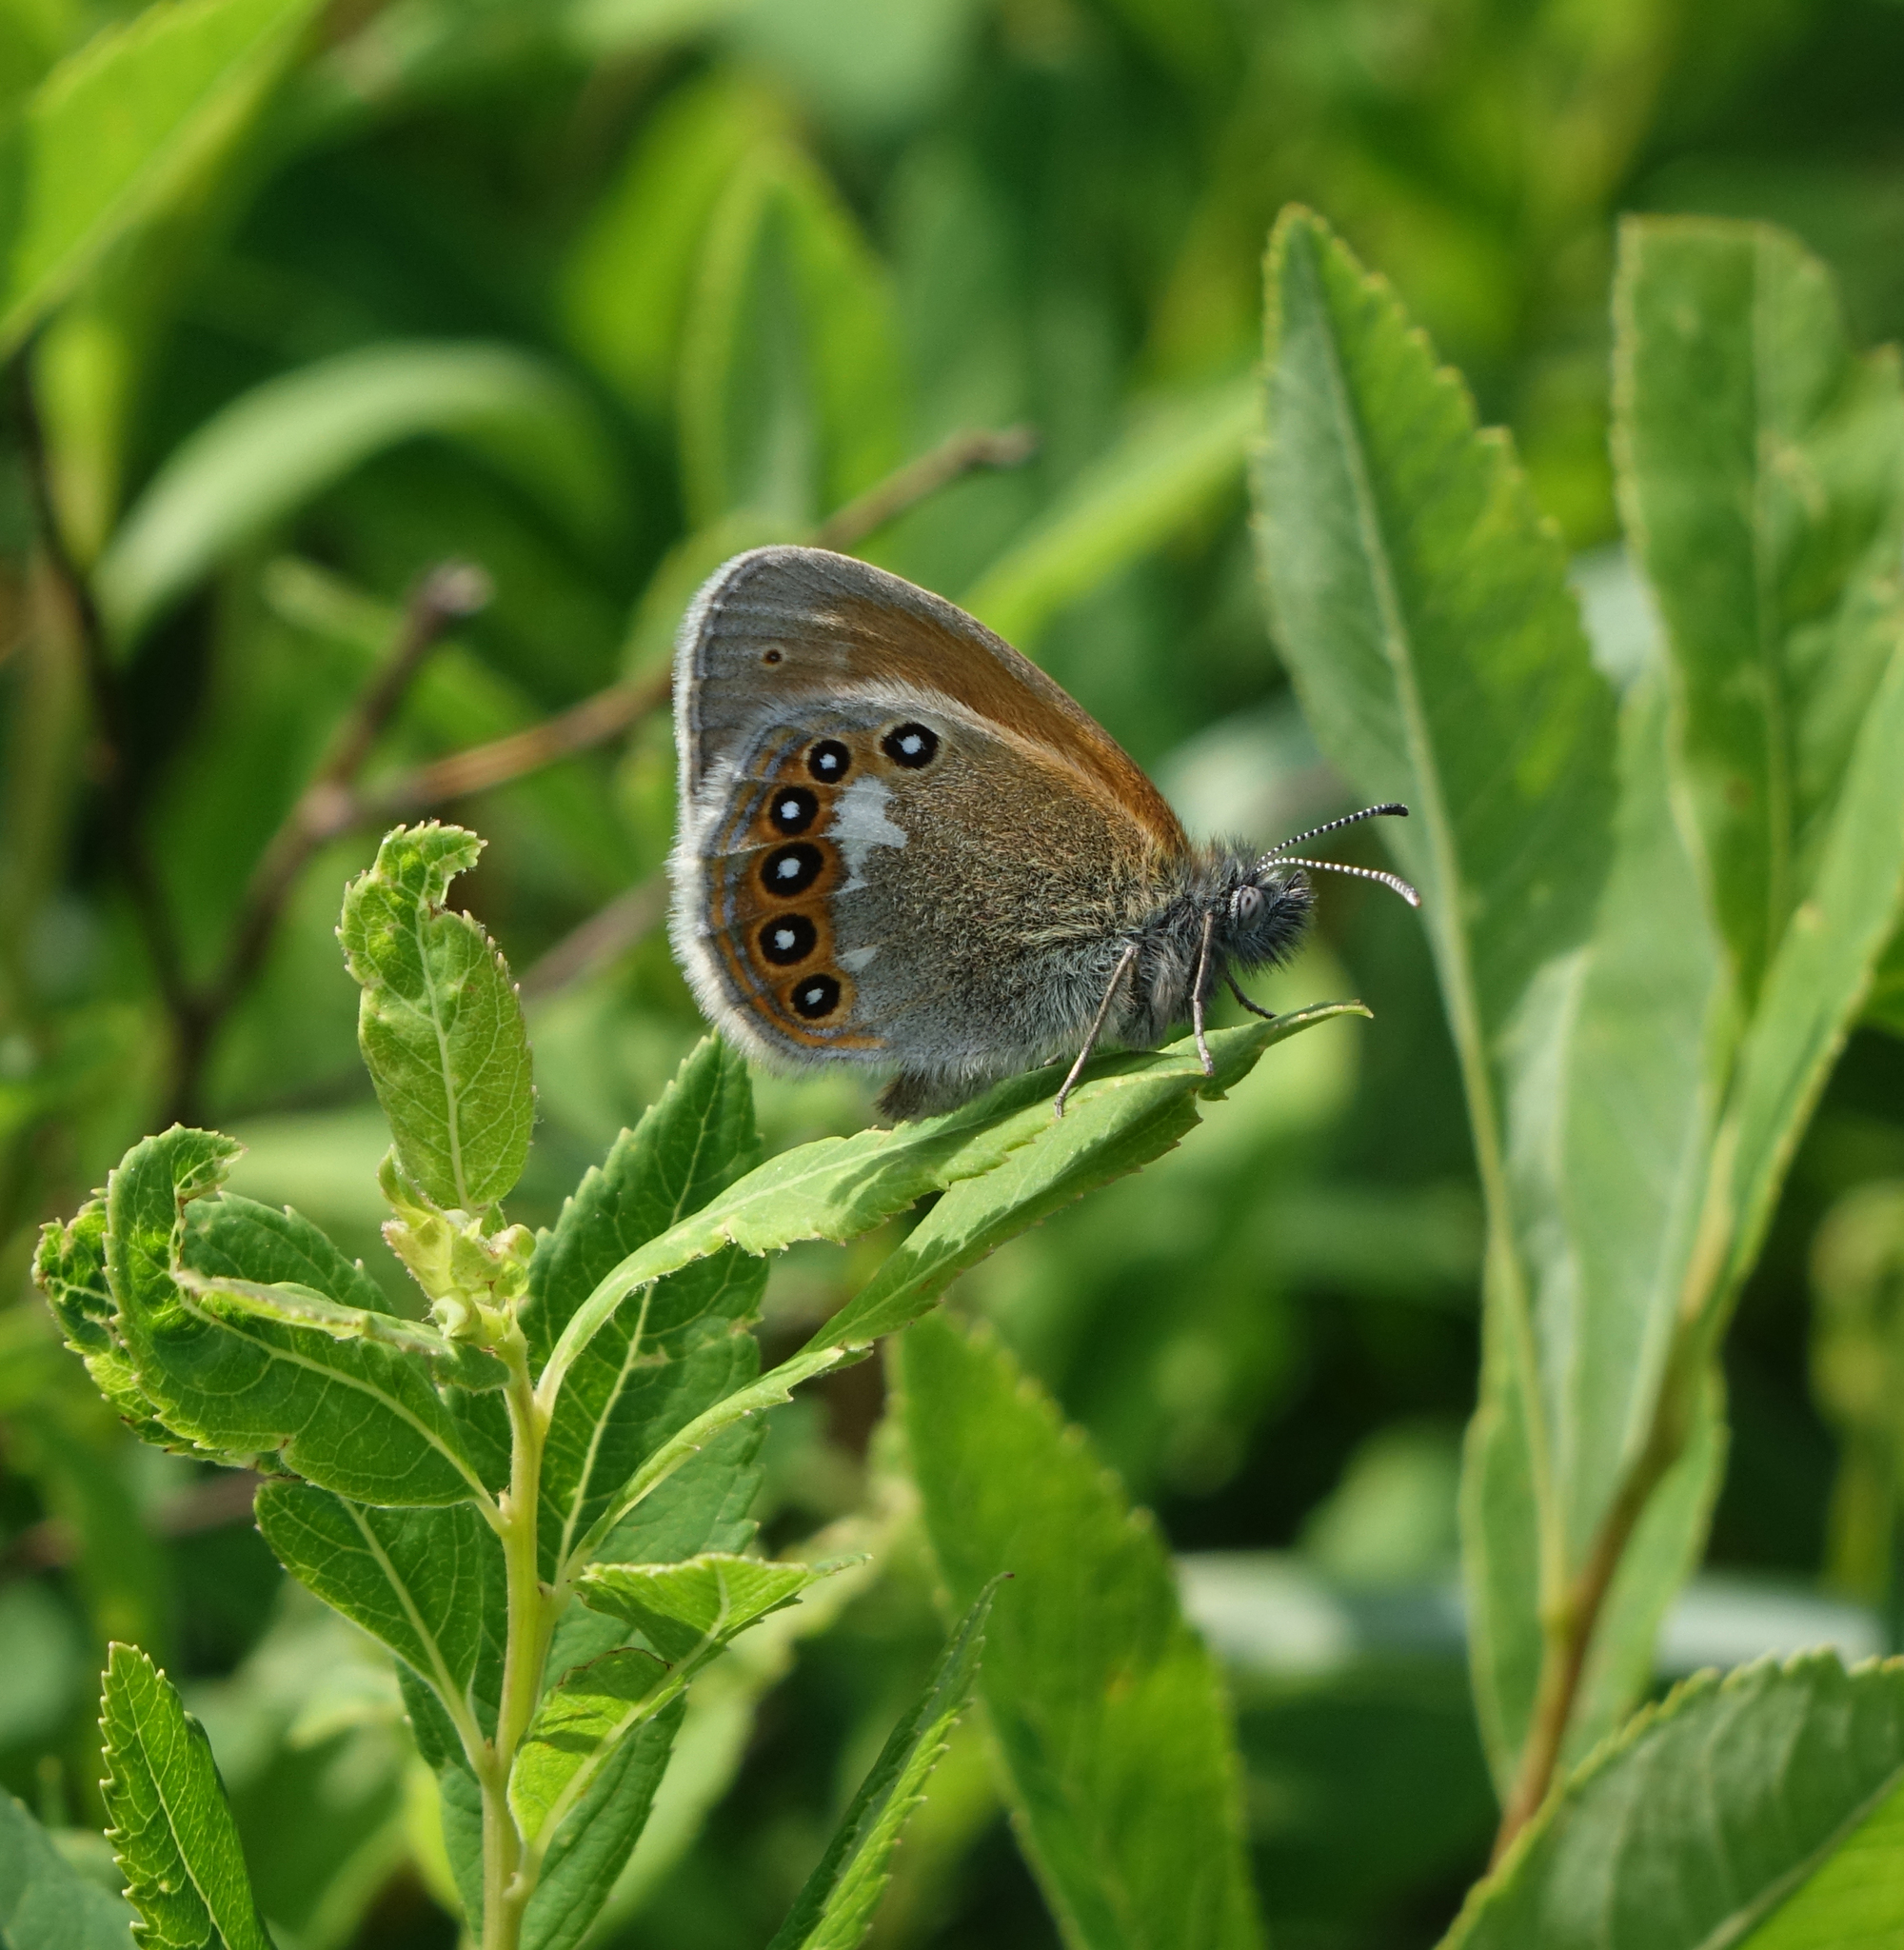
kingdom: Animalia
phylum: Arthropoda
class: Insecta
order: Lepidoptera
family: Nymphalidae
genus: Coenonympha
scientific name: Coenonympha iphis
